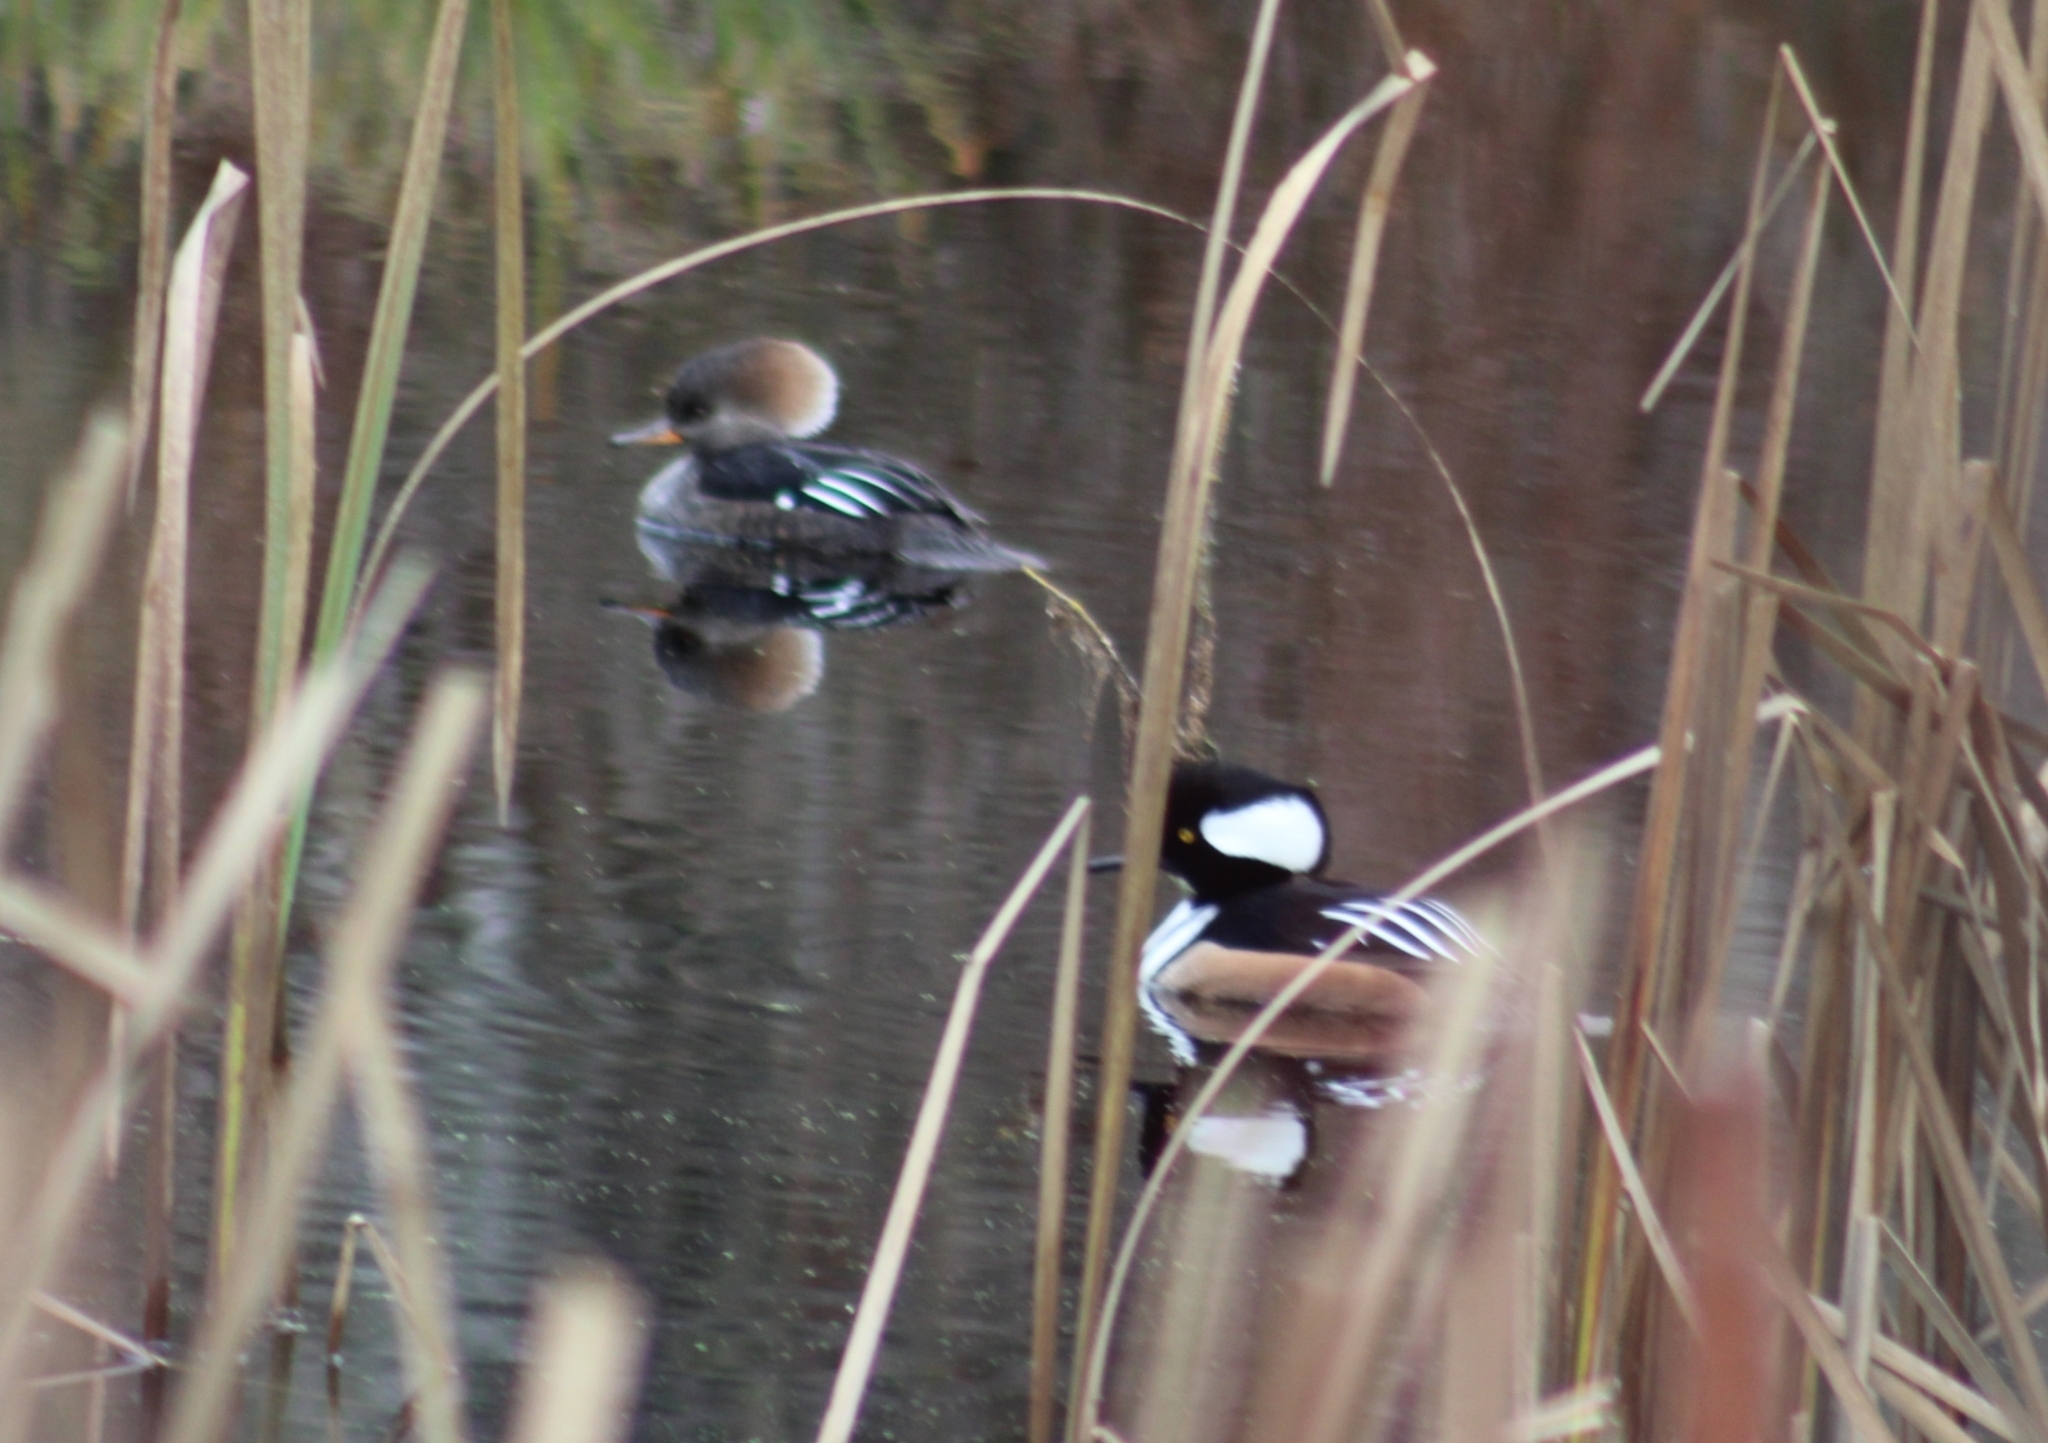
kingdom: Animalia
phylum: Chordata
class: Aves
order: Anseriformes
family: Anatidae
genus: Lophodytes
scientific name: Lophodytes cucullatus
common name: Hooded merganser
